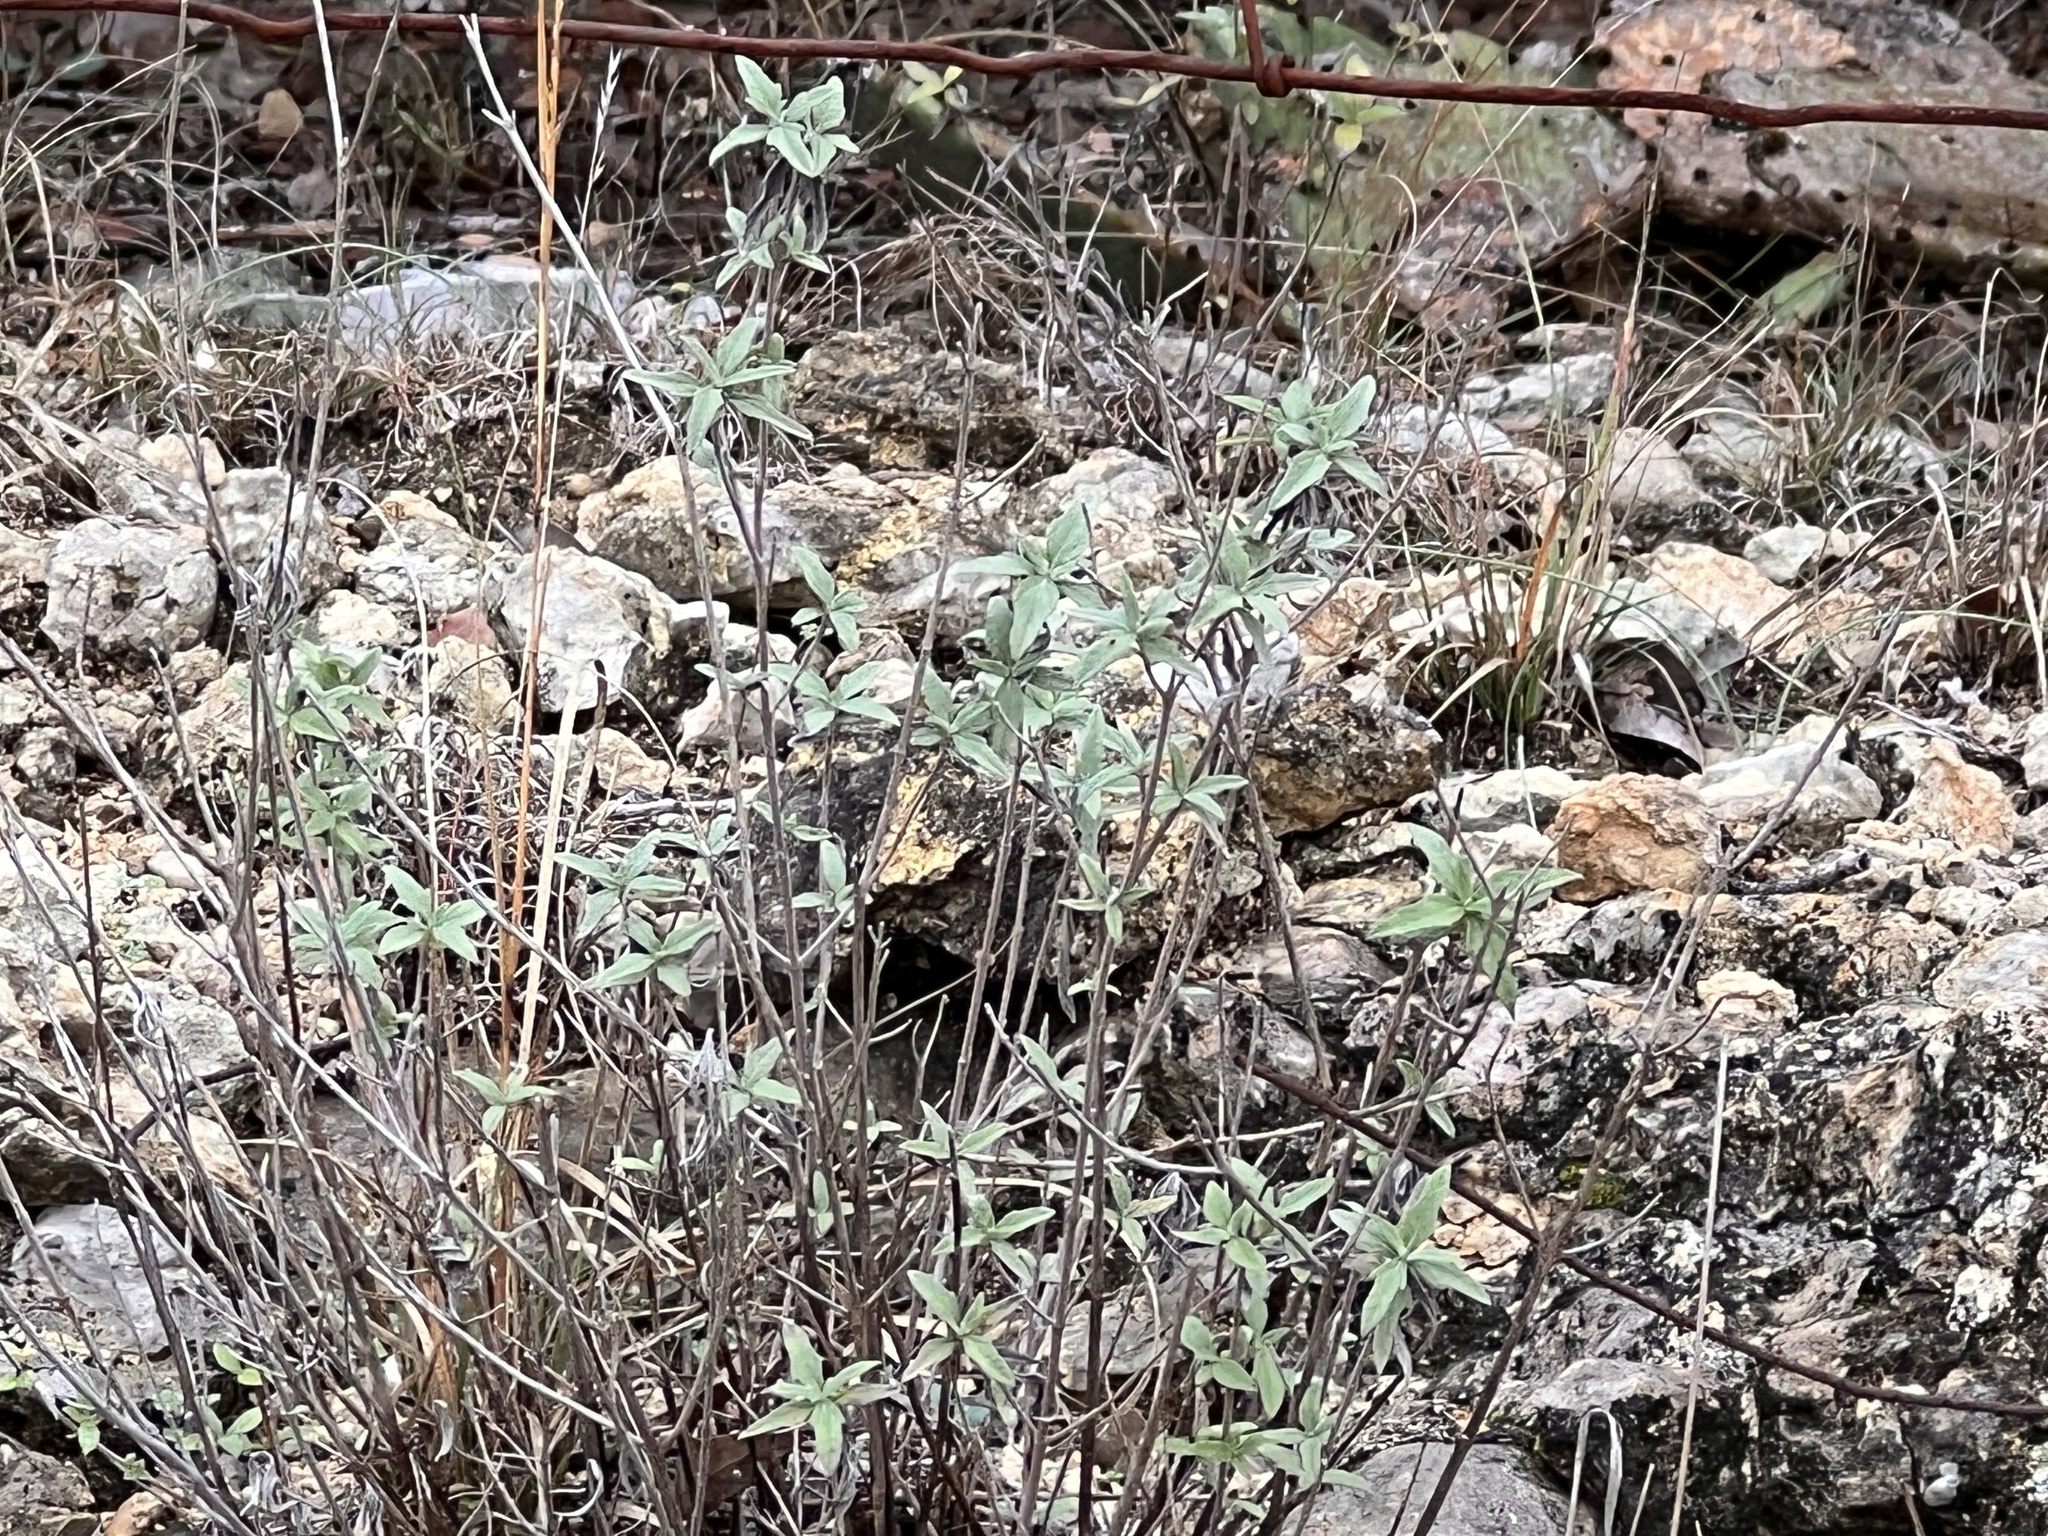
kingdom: Plantae
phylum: Tracheophyta
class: Magnoliopsida
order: Asterales
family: Asteraceae
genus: Wedelia
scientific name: Wedelia acapulcensis
